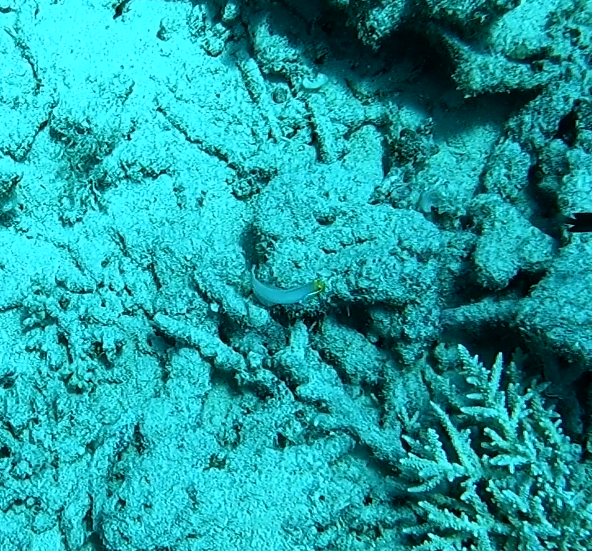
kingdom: Animalia
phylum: Chordata
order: Perciformes
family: Gobiidae
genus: Valenciennea
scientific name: Valenciennea strigata
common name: Blueband goby
